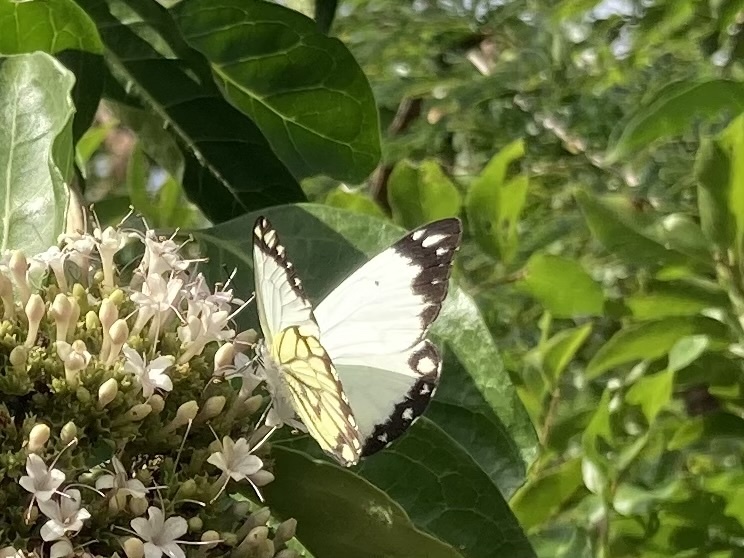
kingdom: Animalia
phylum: Arthropoda
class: Insecta
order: Lepidoptera
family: Pieridae
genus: Belenois
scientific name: Belenois creona
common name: African caper white
